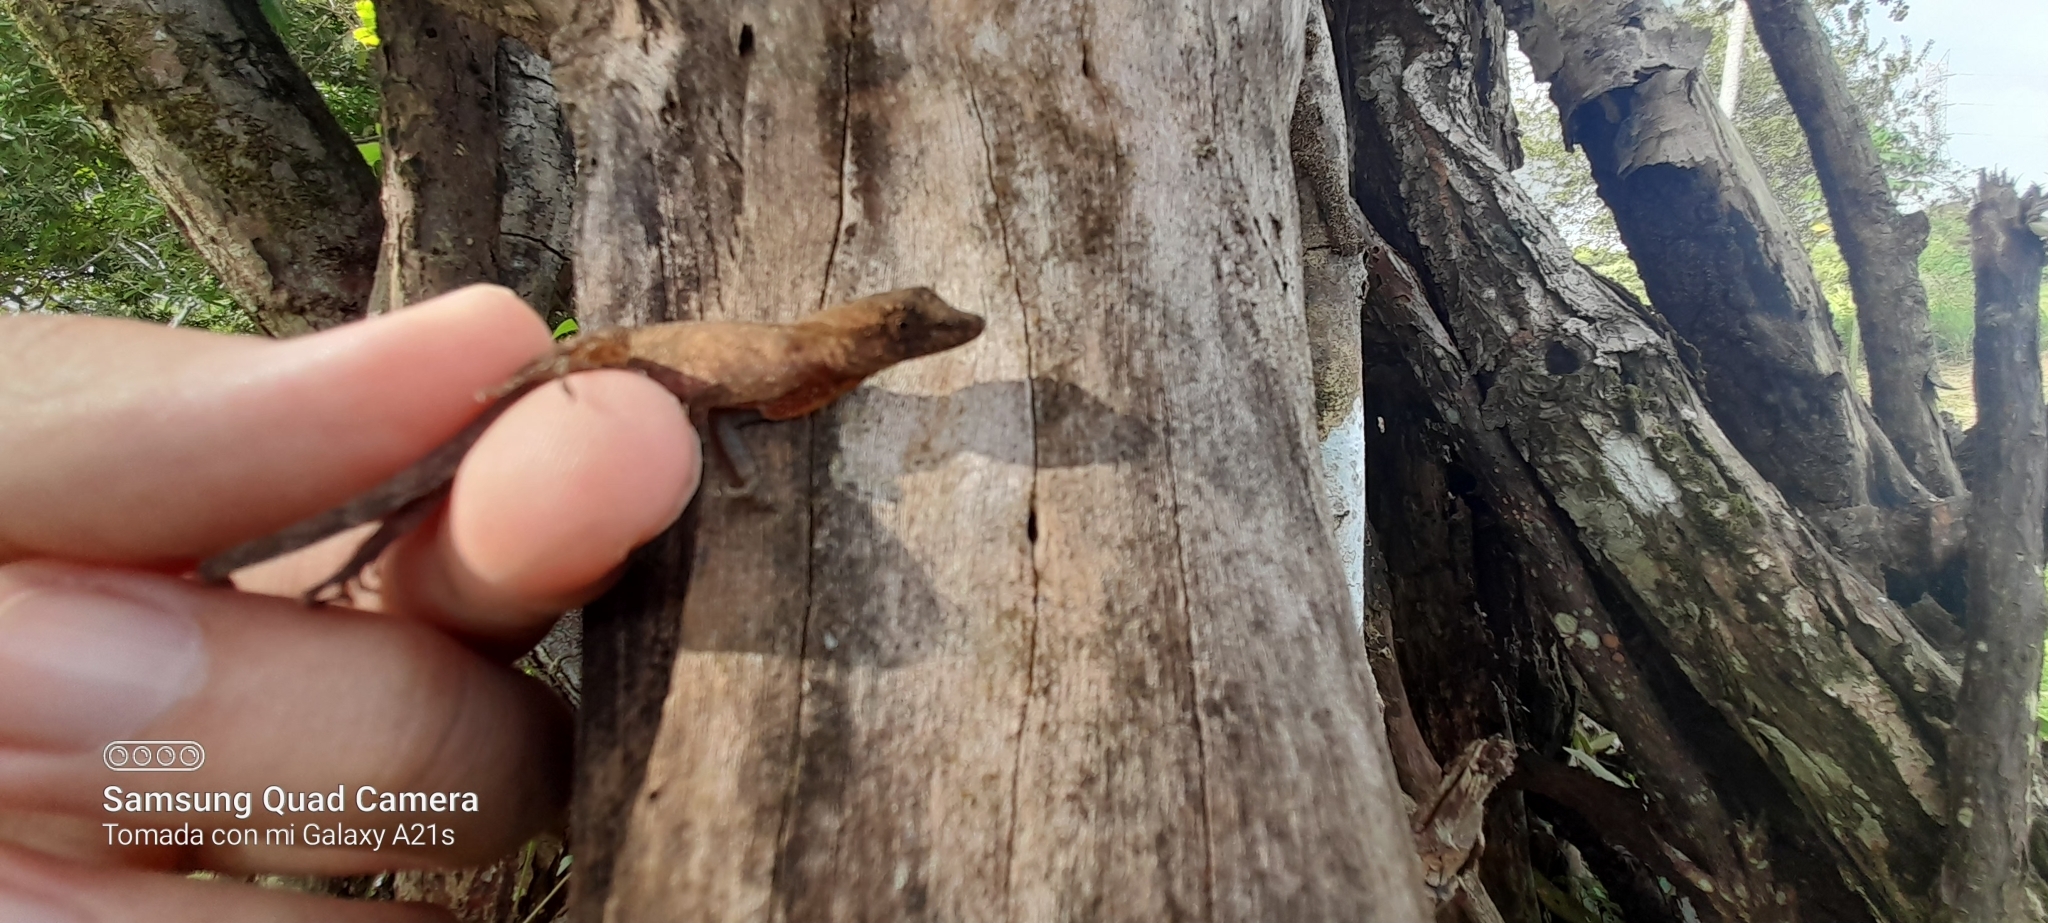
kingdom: Animalia
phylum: Chordata
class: Squamata
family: Dactyloidae
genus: Anolis
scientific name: Anolis gaigei
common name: Gaige’s anole
